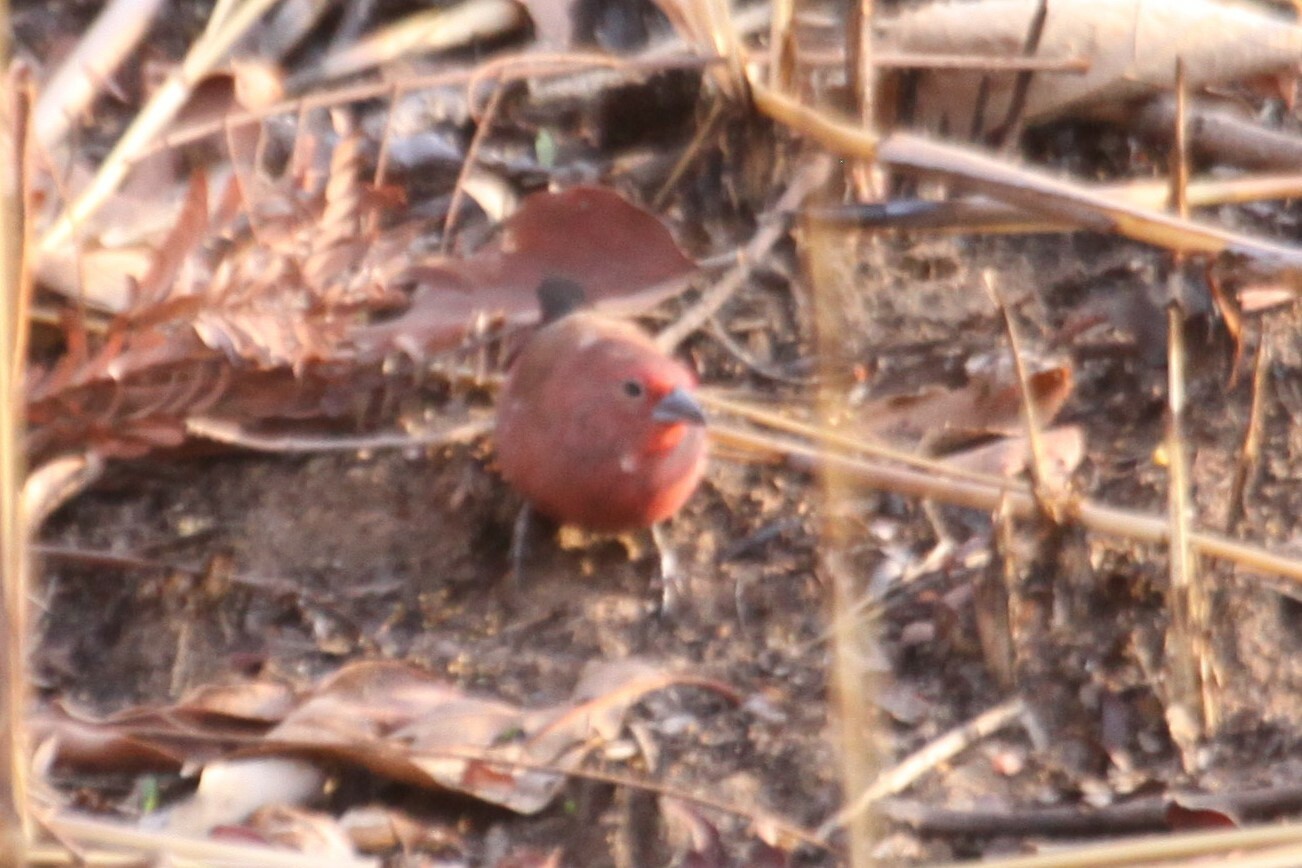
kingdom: Animalia
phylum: Chordata
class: Aves
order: Passeriformes
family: Estrildidae
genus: Lagonosticta
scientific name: Lagonosticta rhodopareia
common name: Jameson's firefinch
